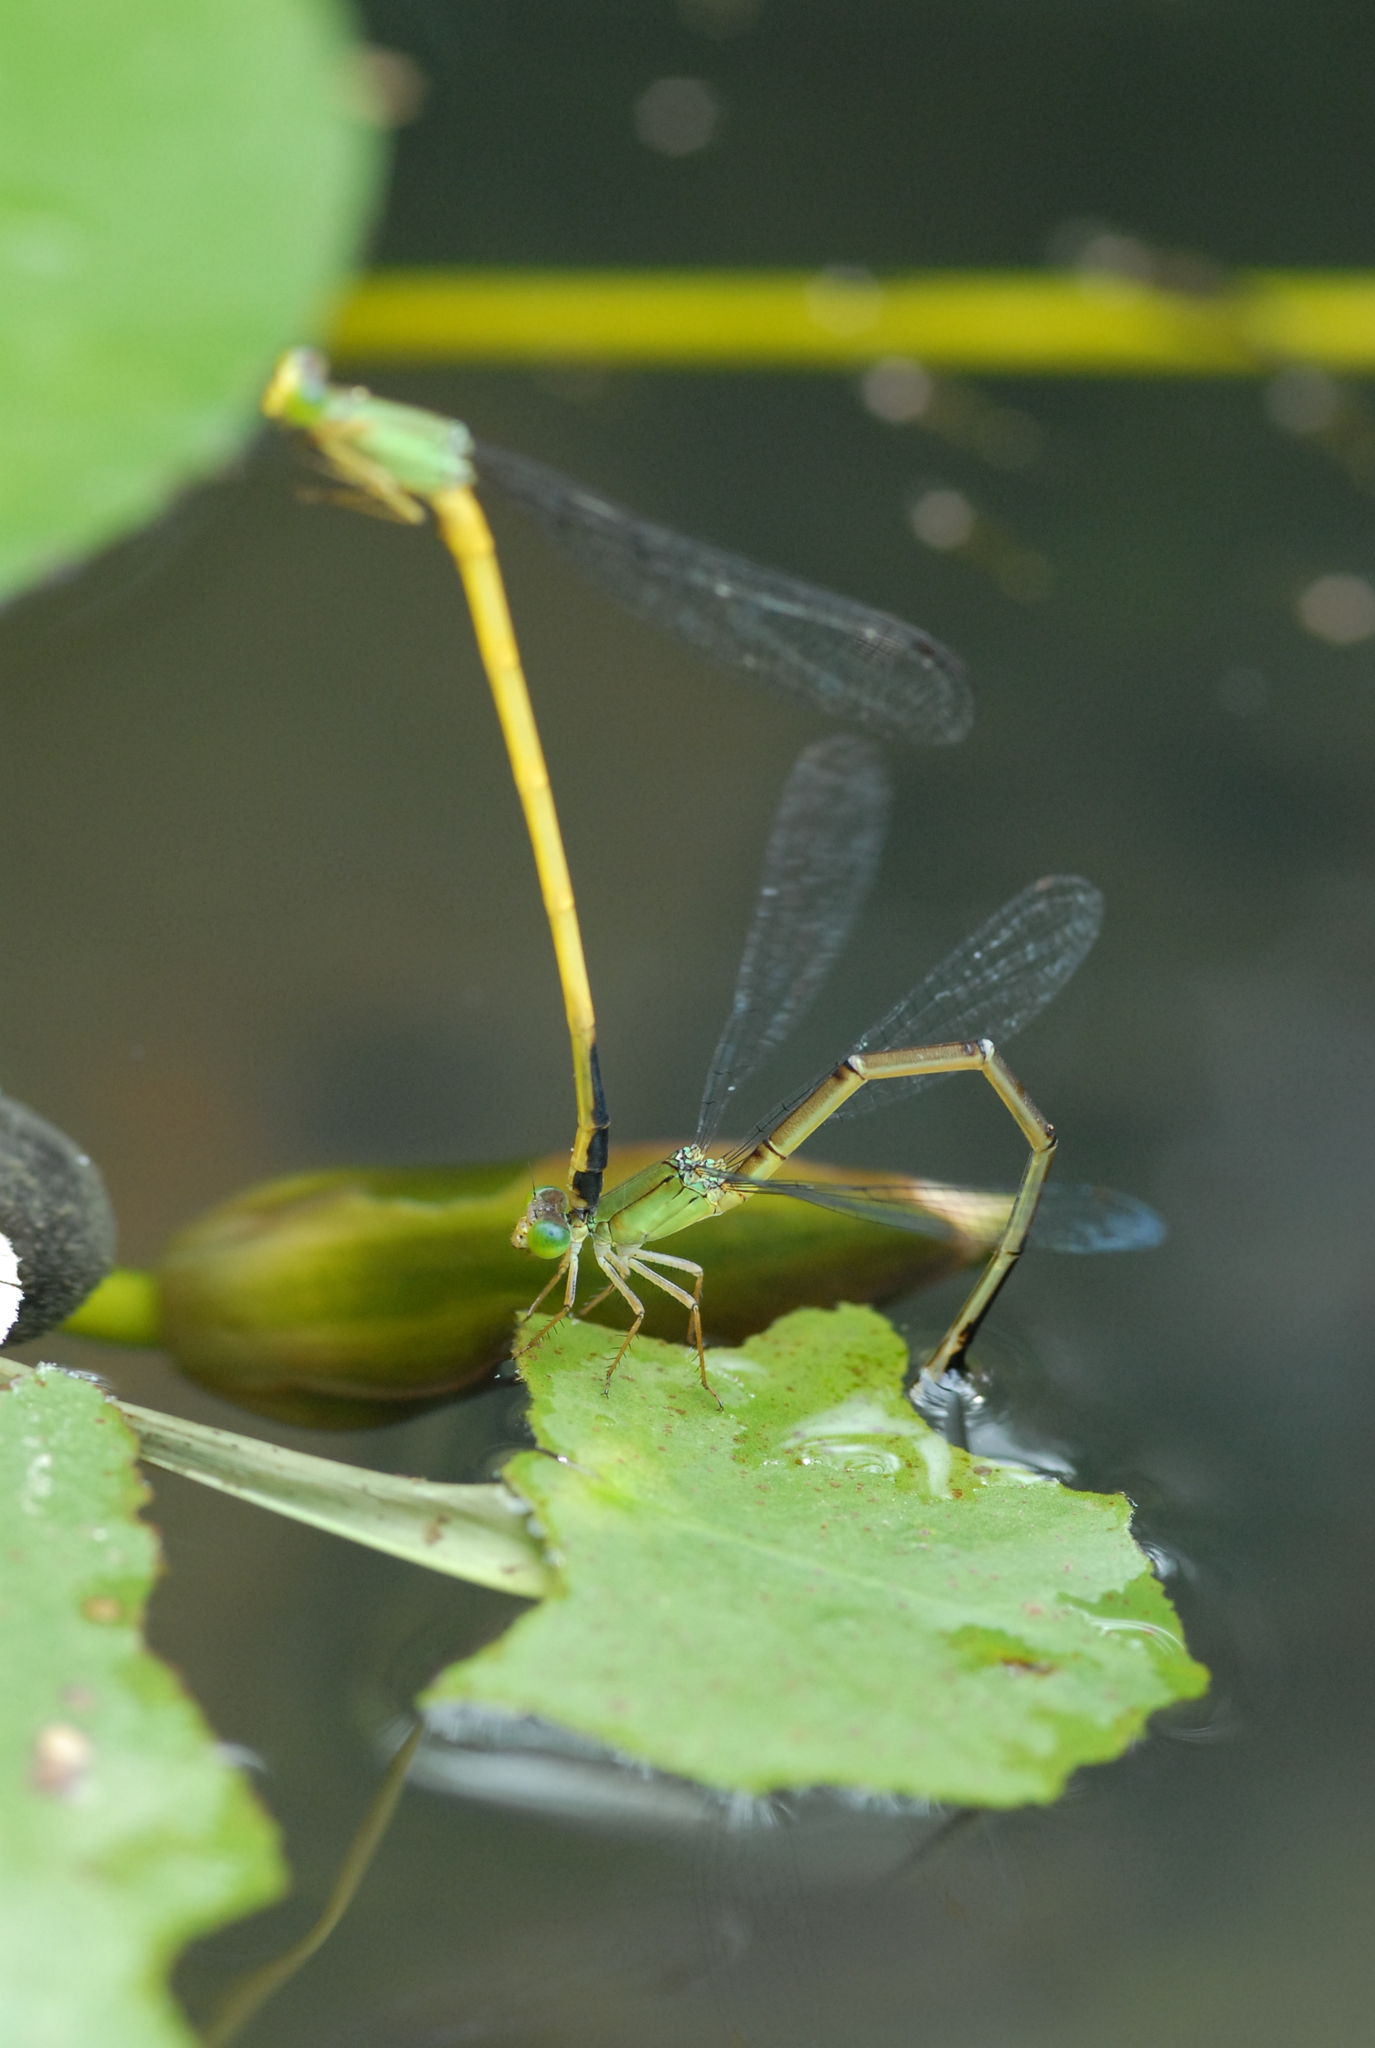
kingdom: Animalia
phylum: Arthropoda
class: Insecta
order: Odonata
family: Coenagrionidae
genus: Ceriagrion
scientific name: Ceriagrion fallax
